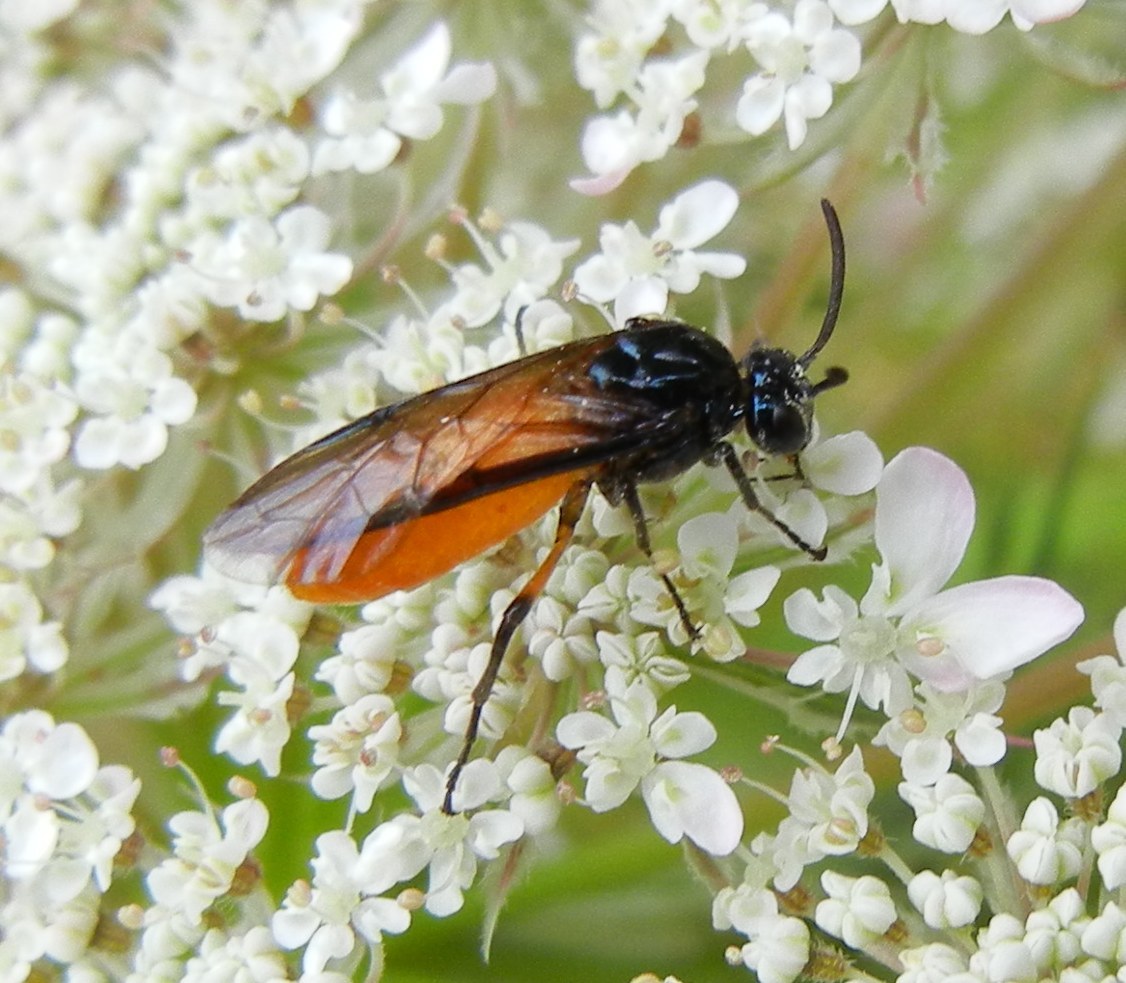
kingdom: Animalia
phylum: Arthropoda
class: Insecta
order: Hymenoptera
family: Argidae
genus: Arge
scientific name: Arge pagana
